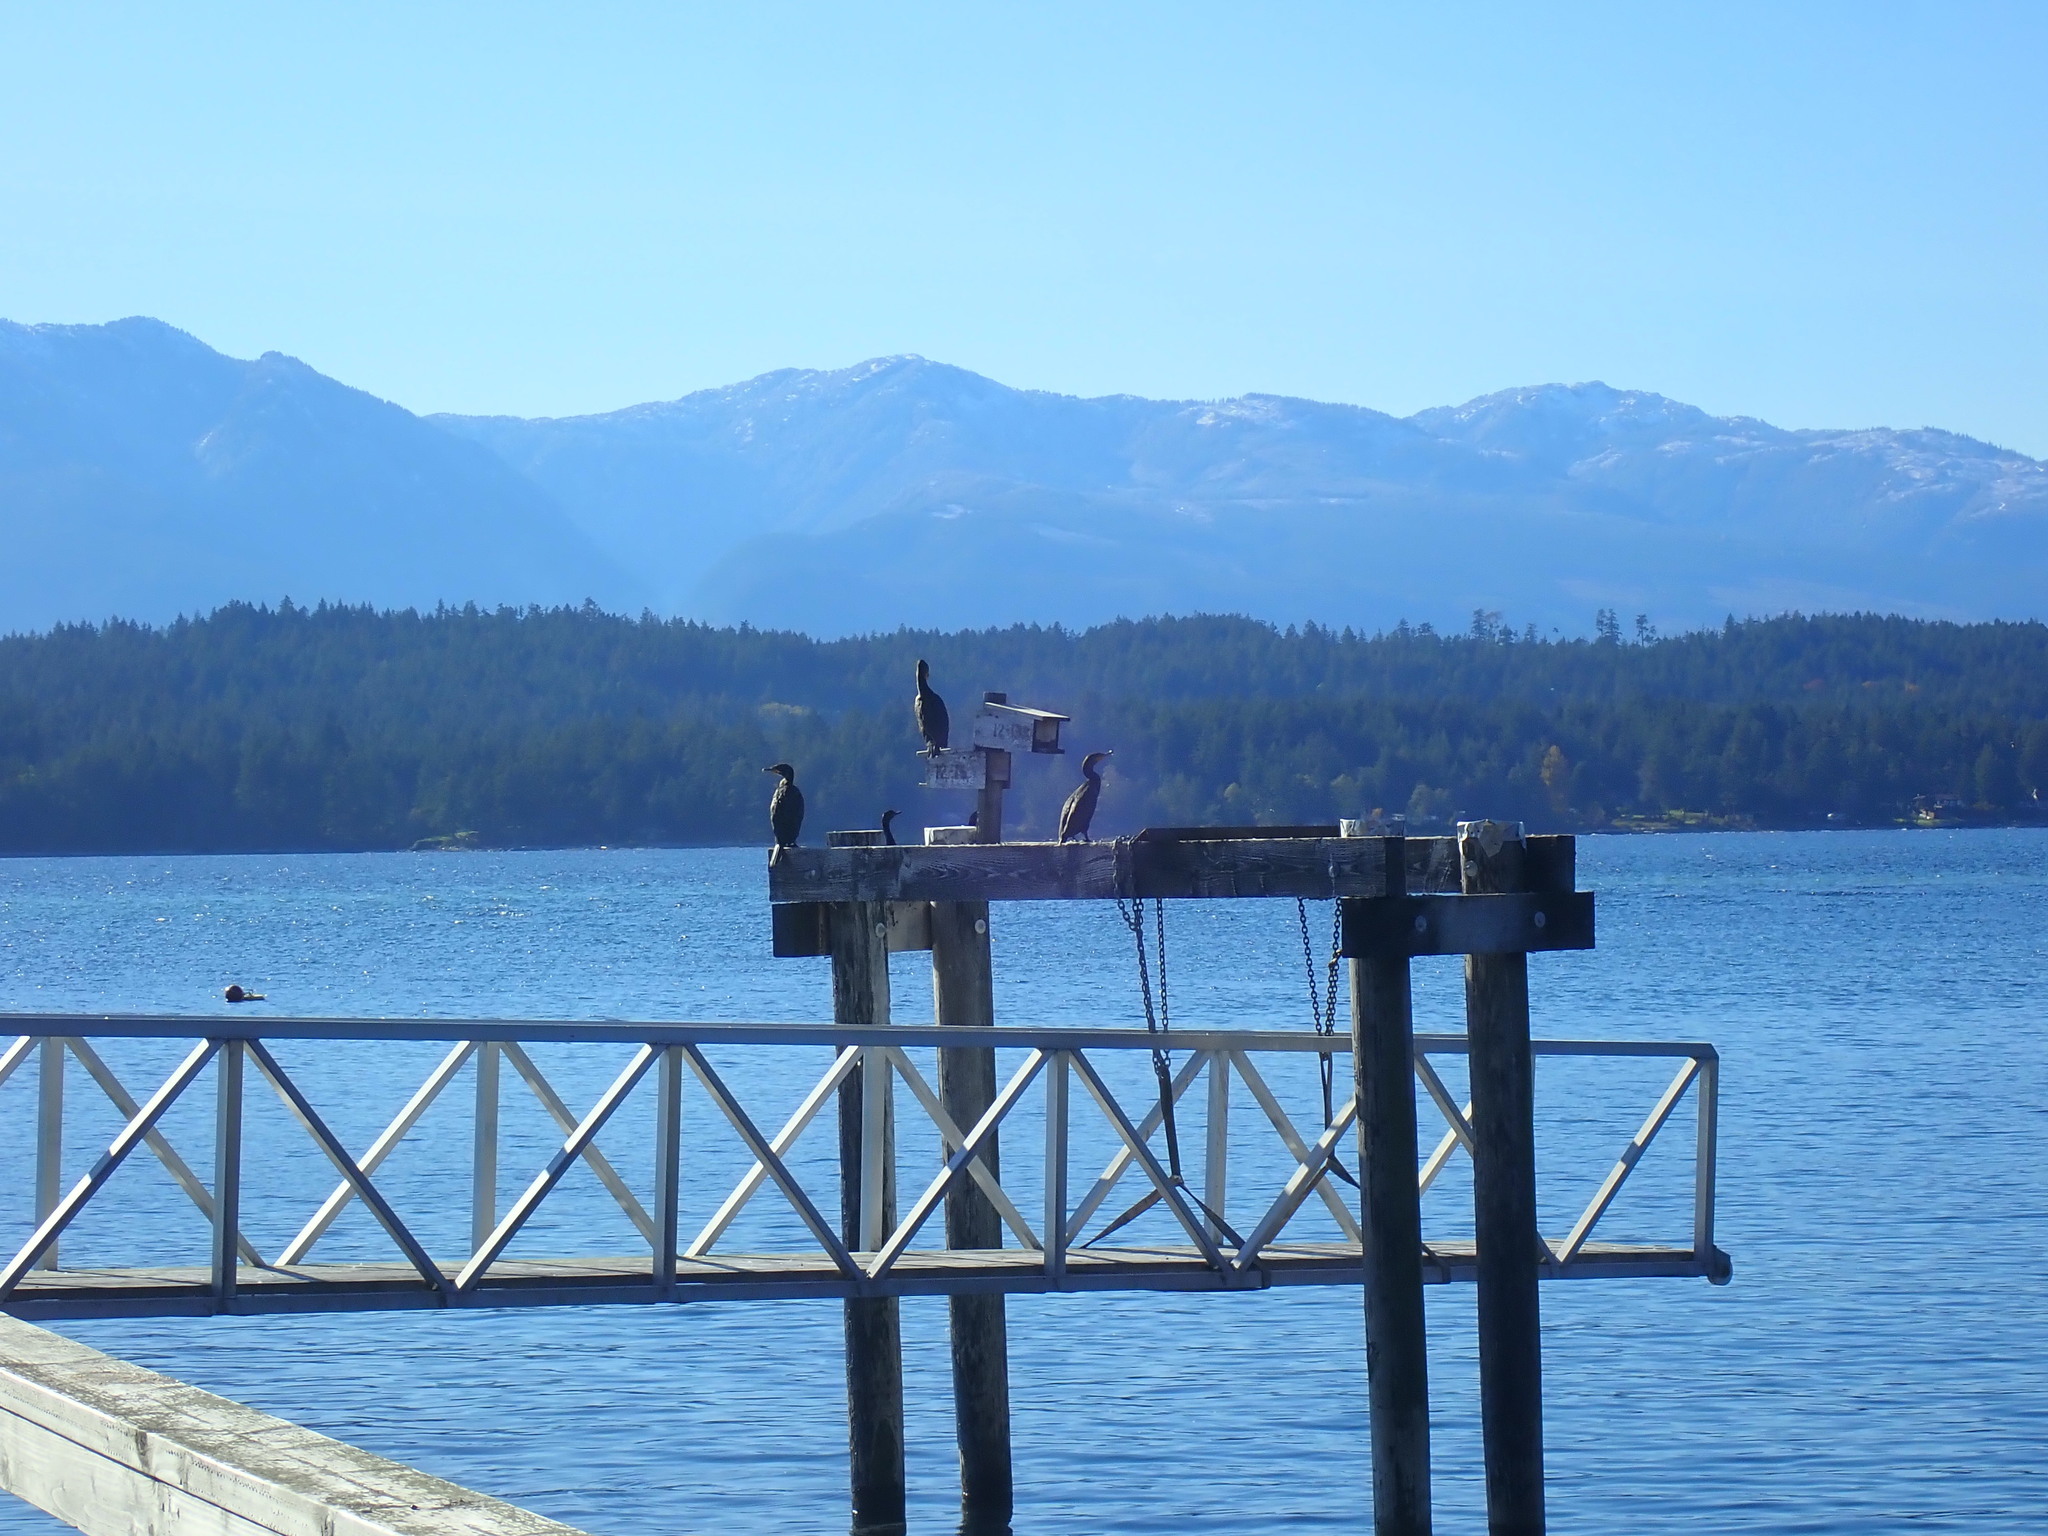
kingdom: Animalia
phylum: Chordata
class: Aves
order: Suliformes
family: Phalacrocoracidae
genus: Phalacrocorax
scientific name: Phalacrocorax auritus
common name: Double-crested cormorant
